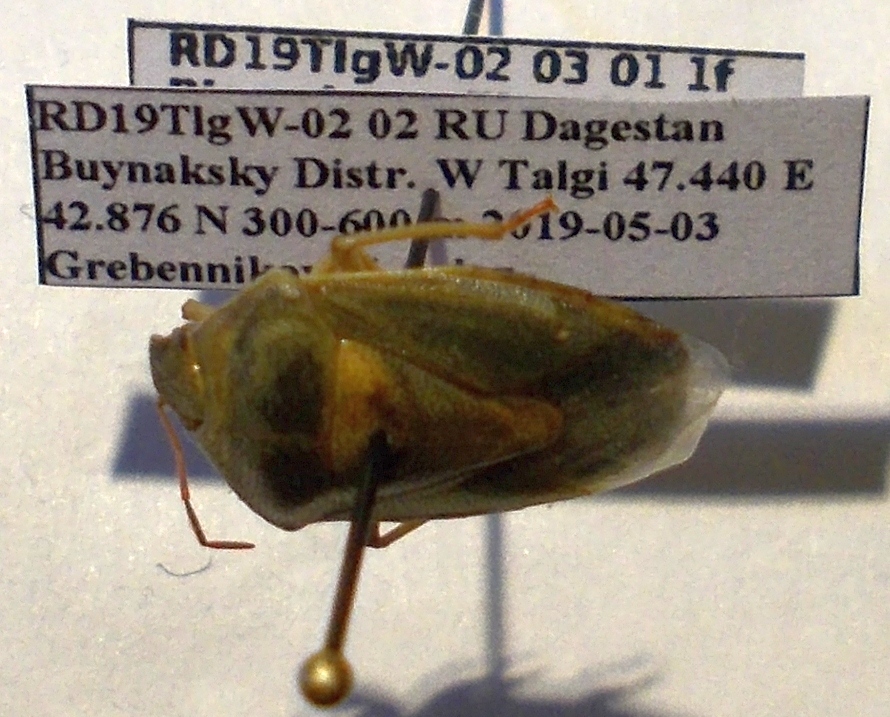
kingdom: Animalia
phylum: Arthropoda
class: Insecta
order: Hemiptera
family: Pentatomidae
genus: Piezodorus
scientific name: Piezodorus lituratus
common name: Stink bug
